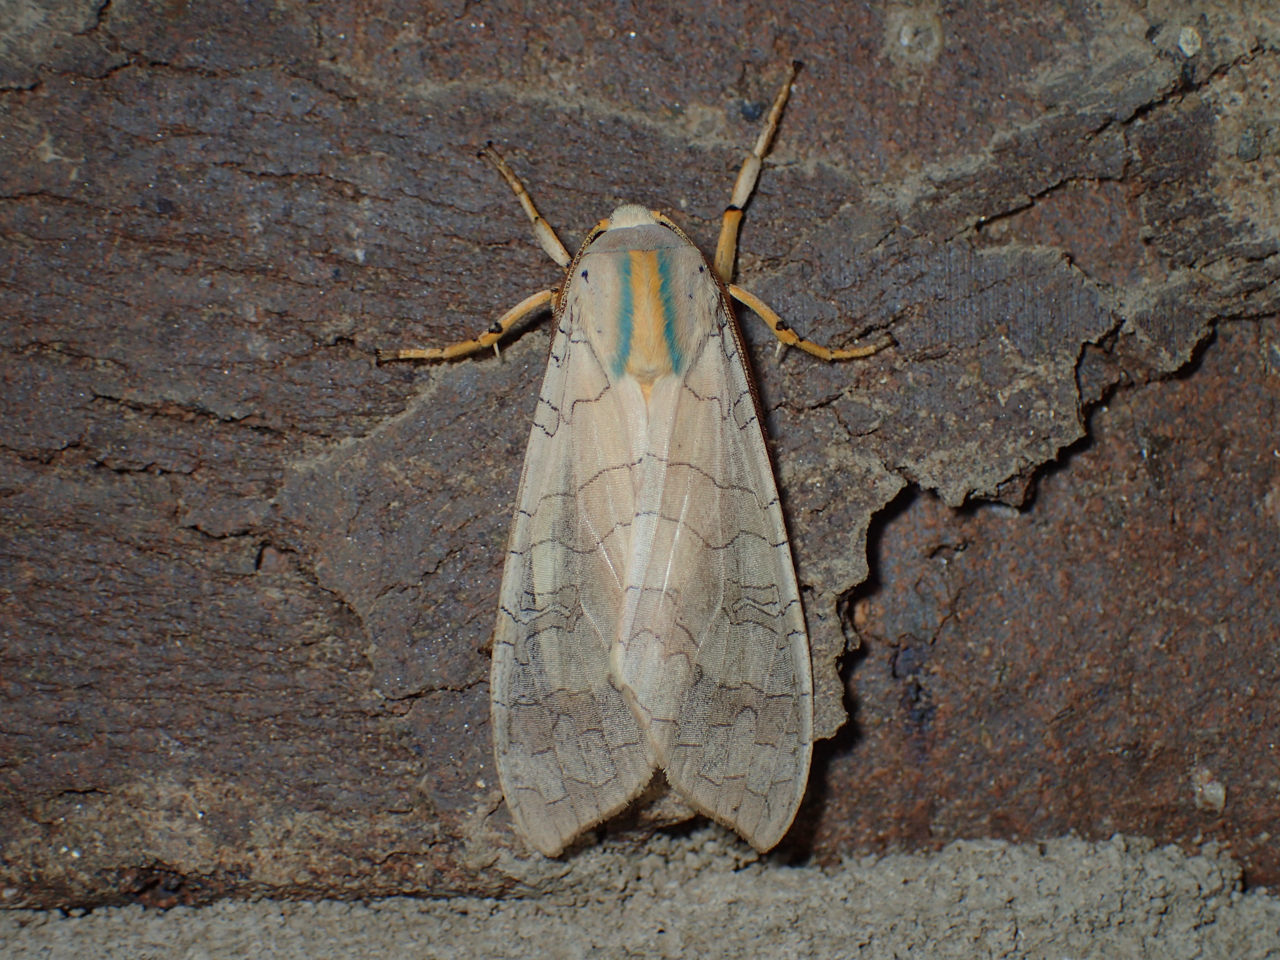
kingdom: Animalia
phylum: Arthropoda
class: Insecta
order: Lepidoptera
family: Erebidae
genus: Halysidota
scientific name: Halysidota
